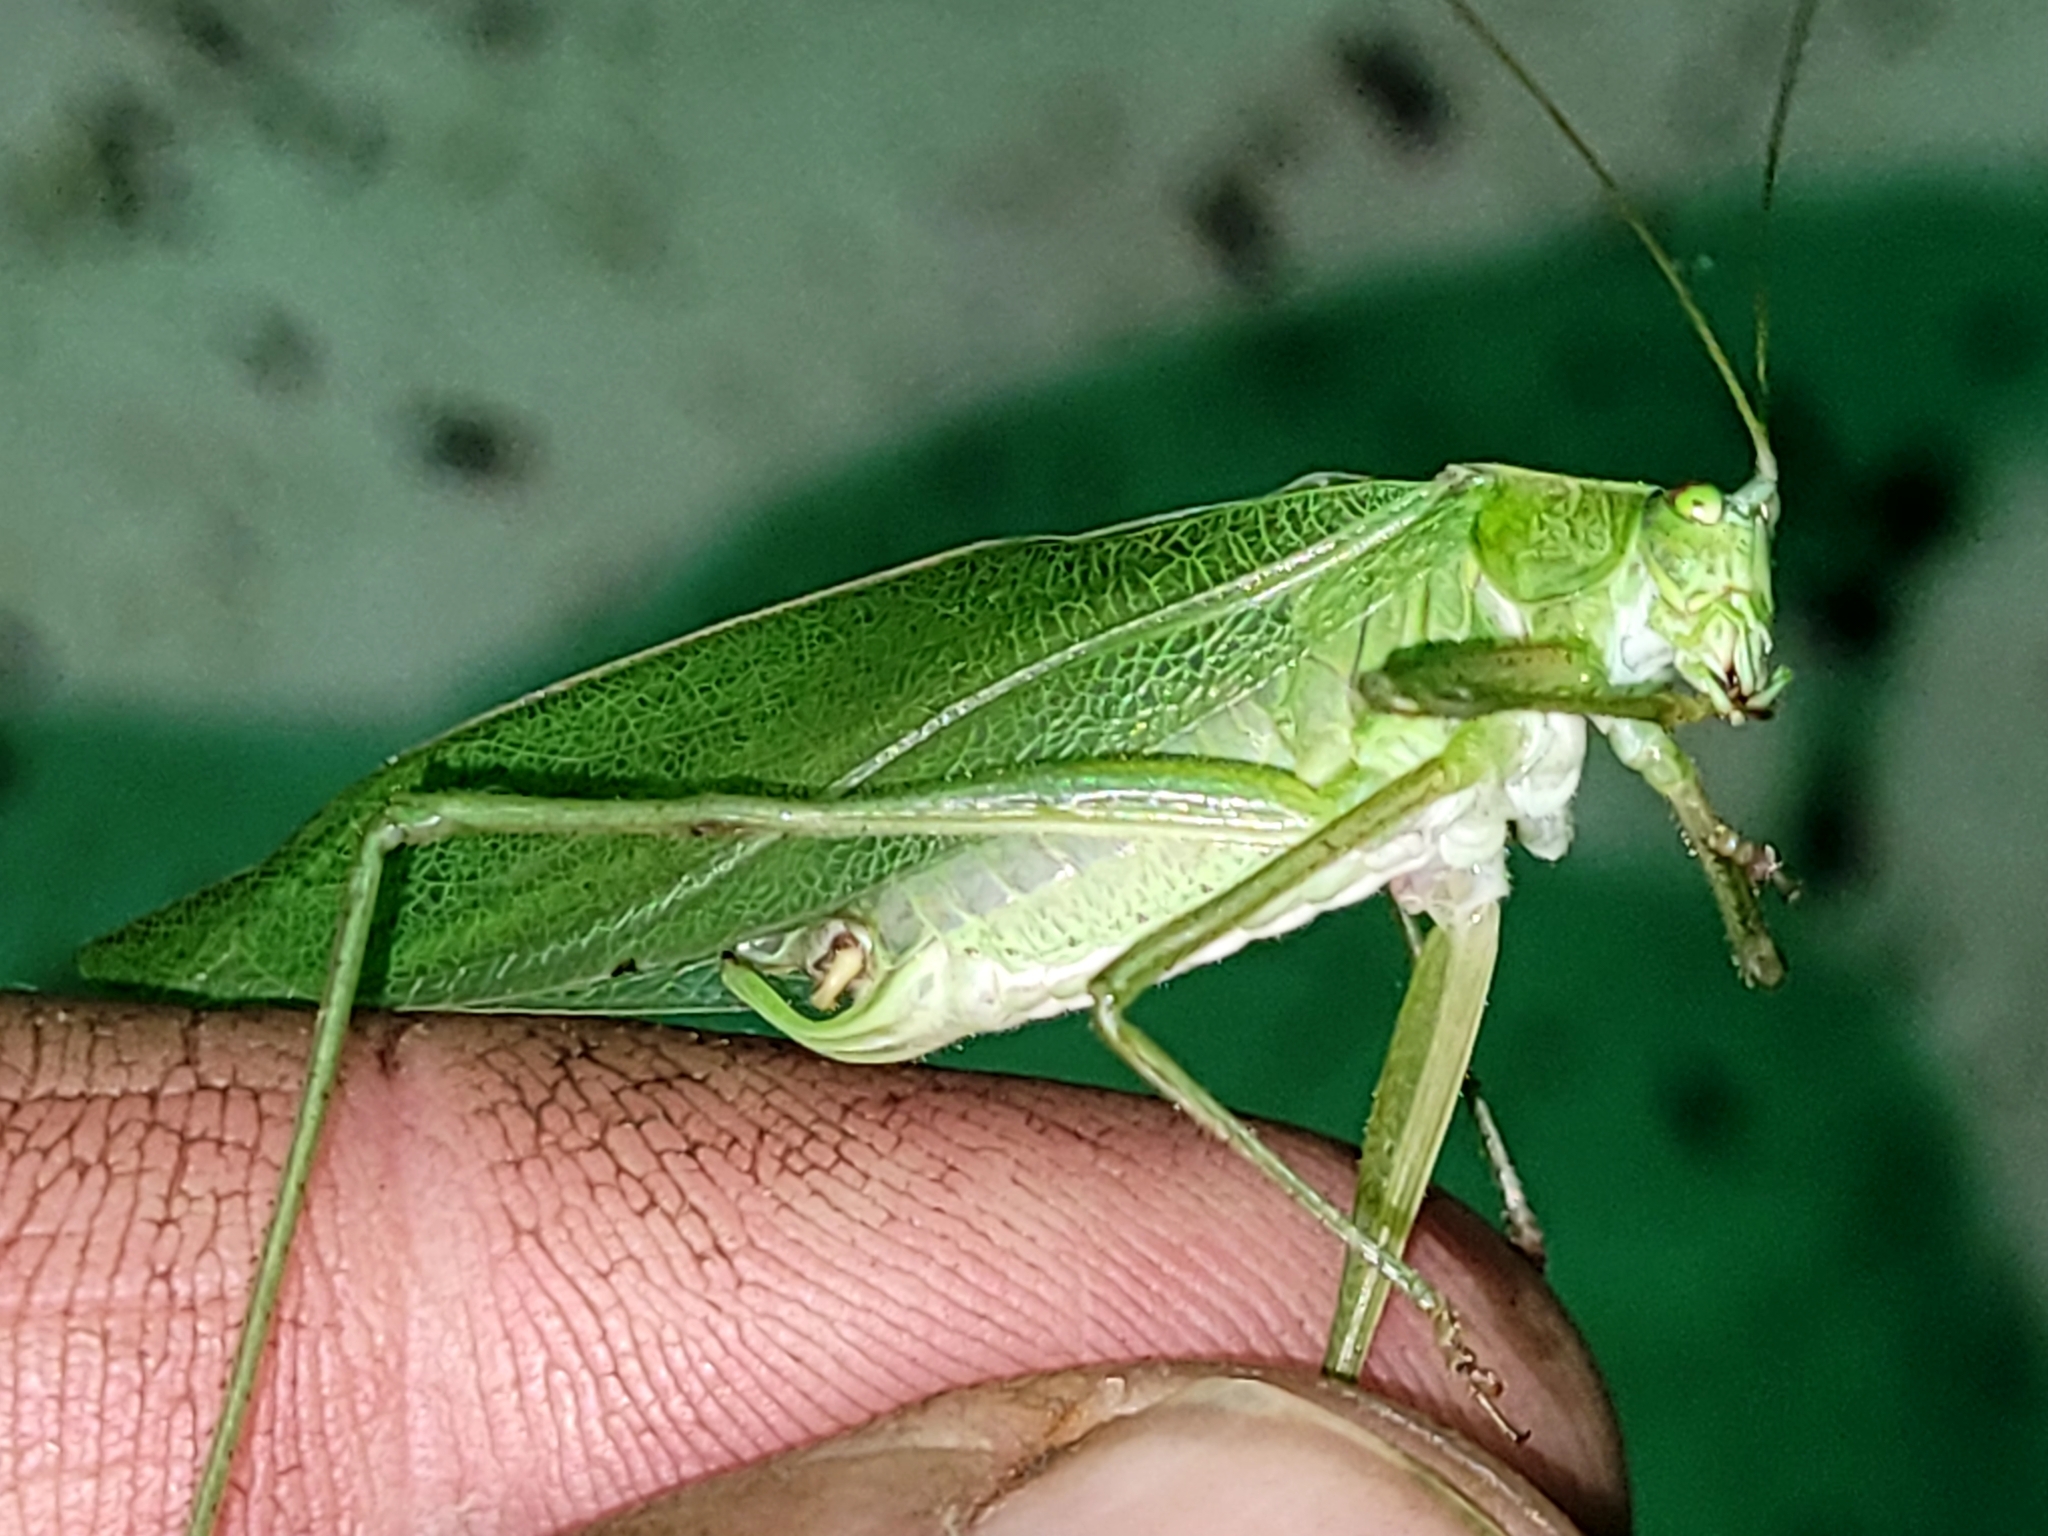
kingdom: Animalia
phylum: Arthropoda
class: Insecta
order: Orthoptera
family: Tettigoniidae
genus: Scudderia
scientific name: Scudderia pistillata
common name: Broad-winged bush-katydid
